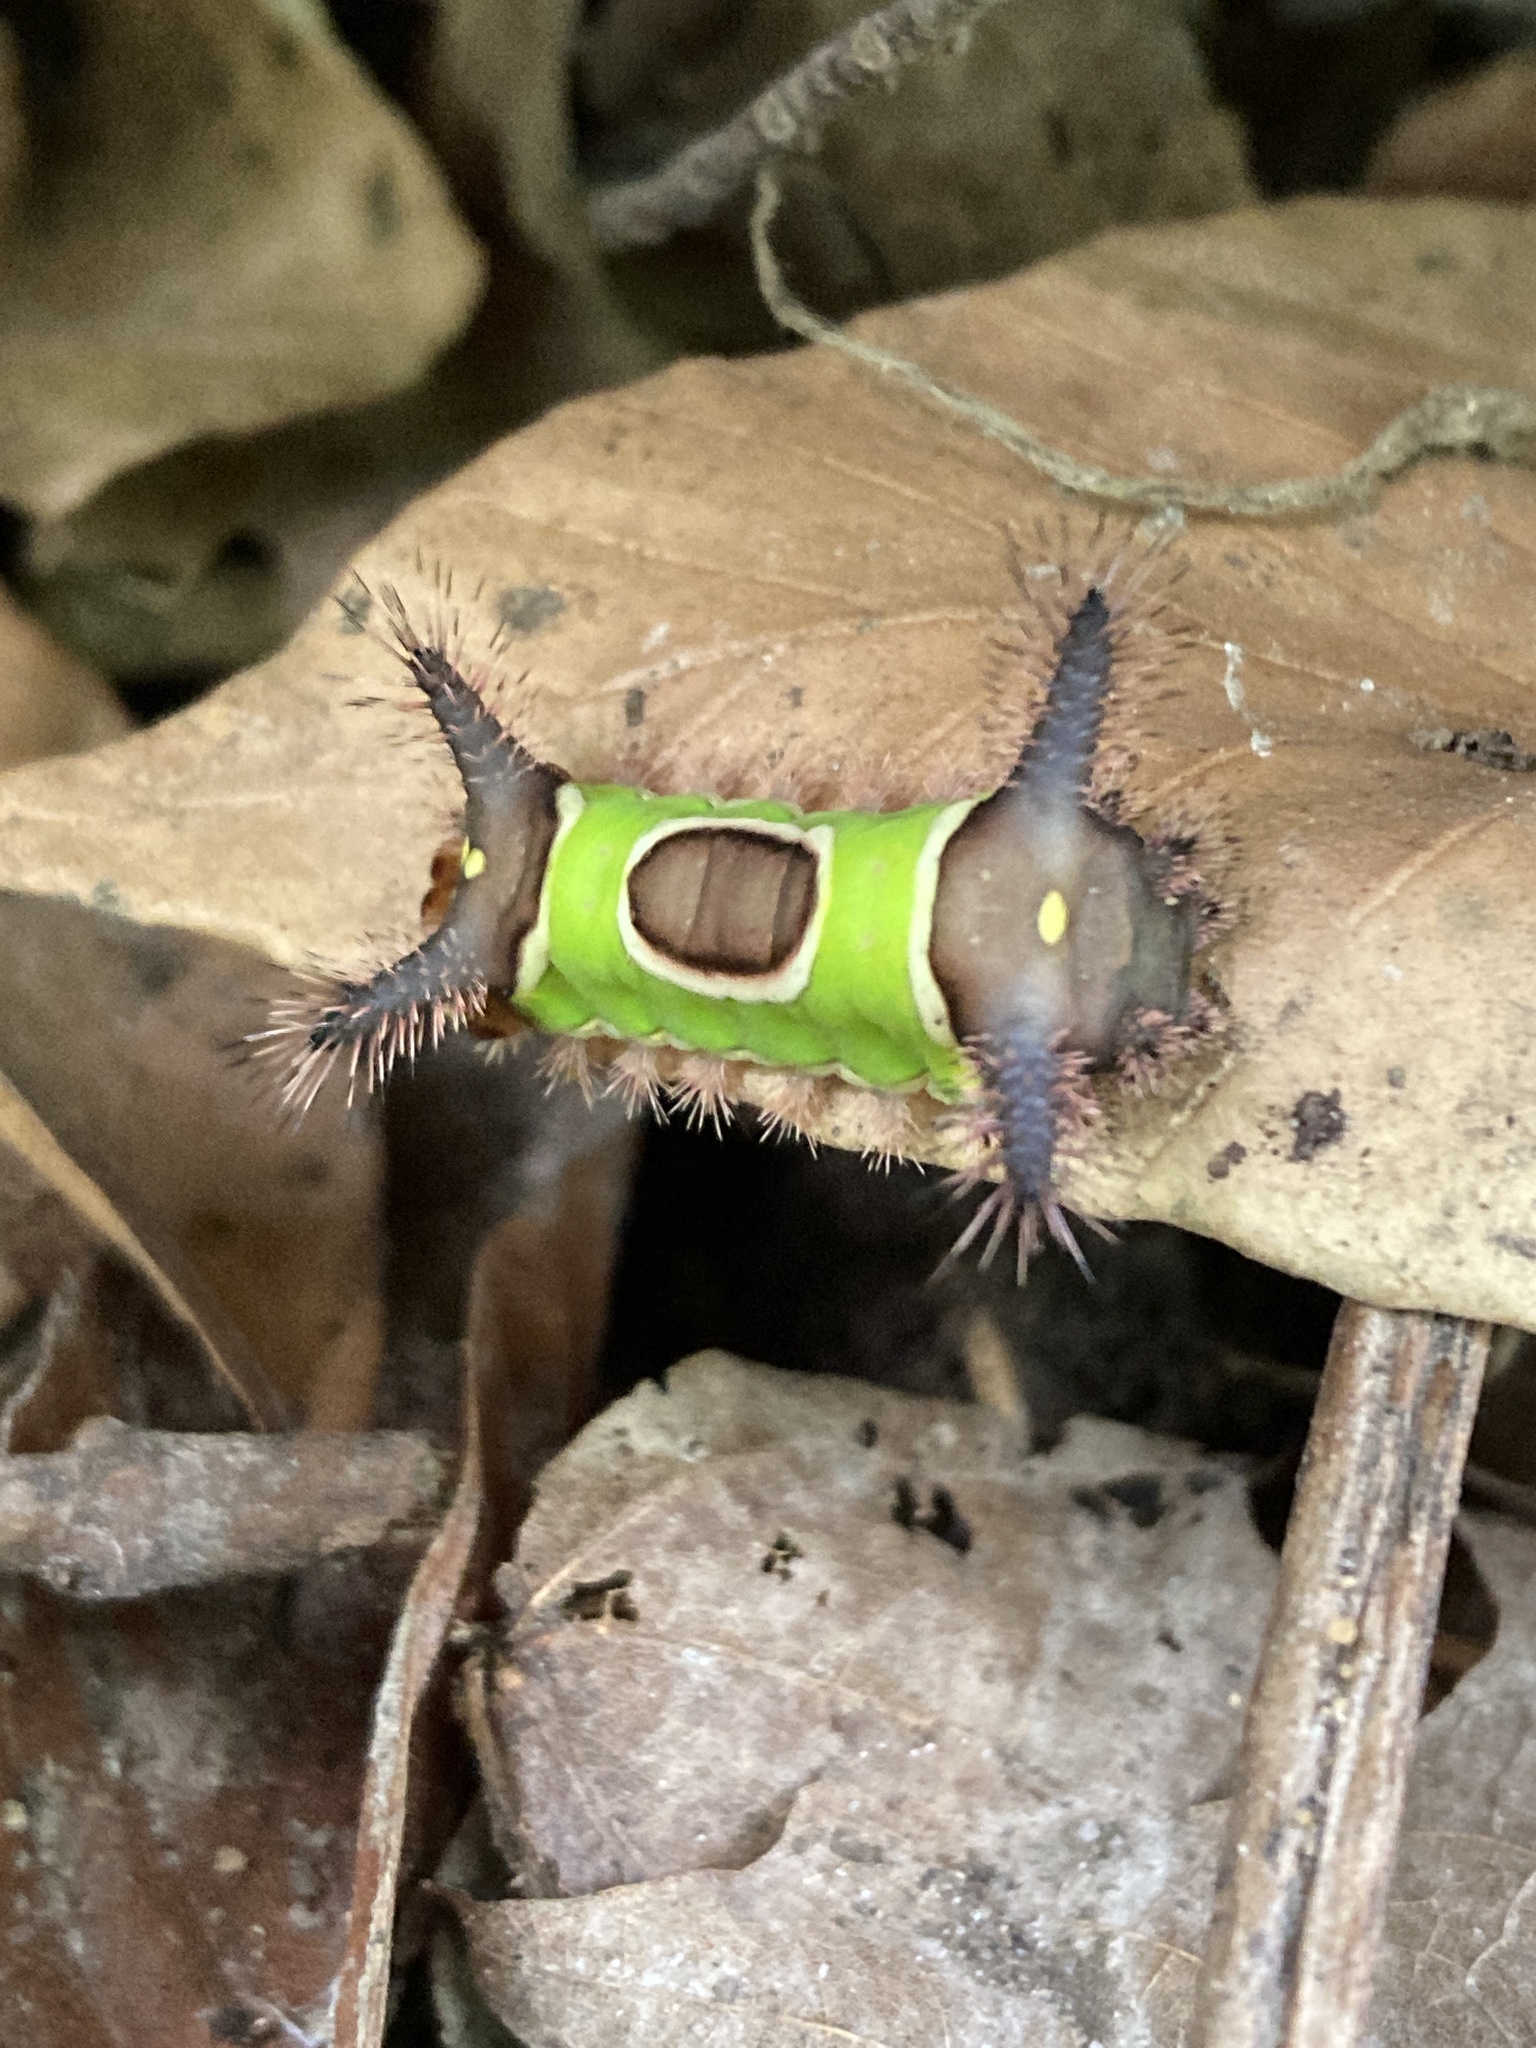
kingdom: Animalia
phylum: Arthropoda
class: Insecta
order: Lepidoptera
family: Limacodidae
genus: Acharia
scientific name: Acharia stimulea
